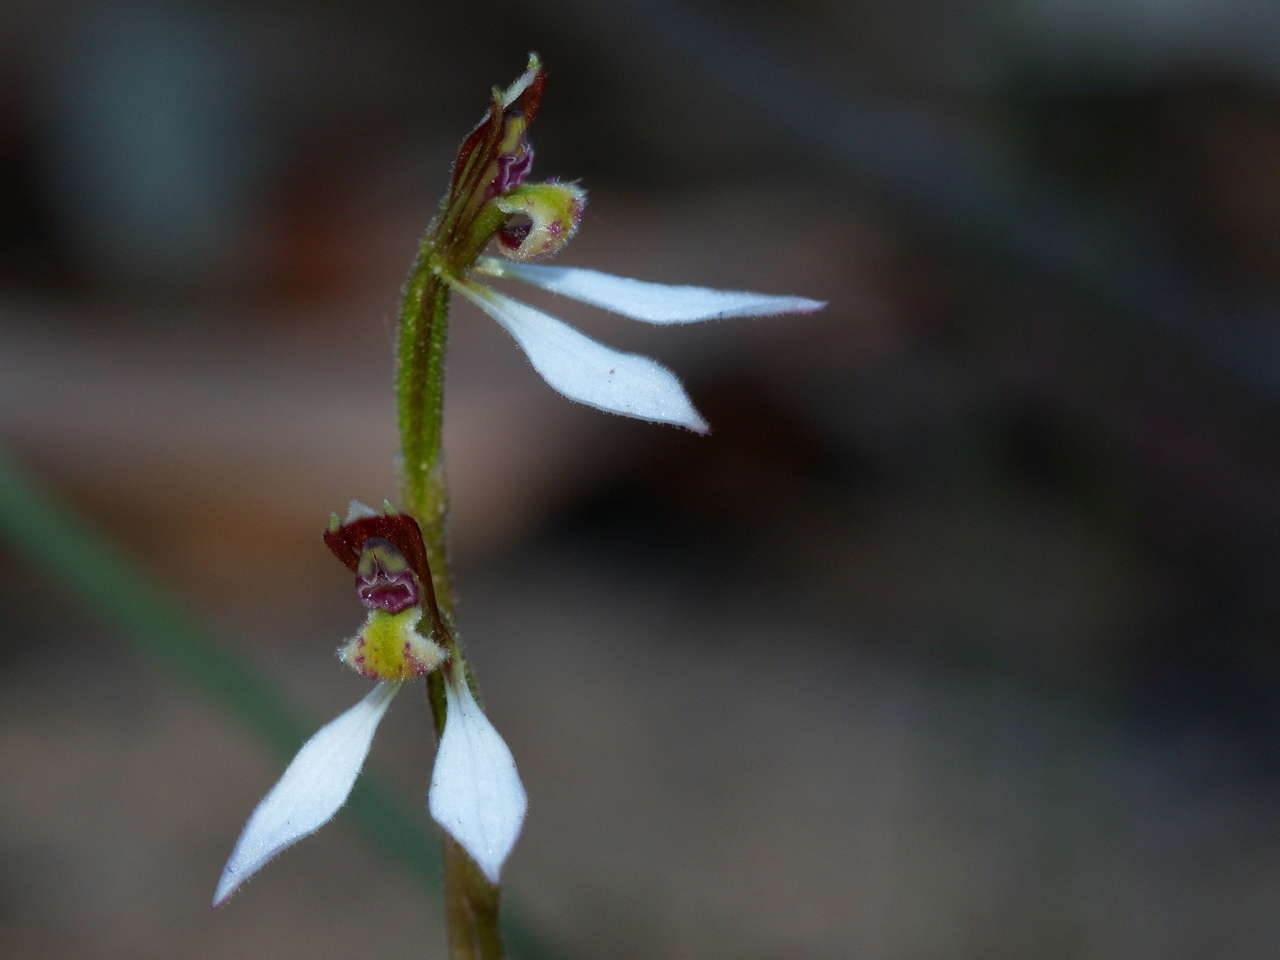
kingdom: Plantae
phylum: Tracheophyta
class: Liliopsida
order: Asparagales
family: Orchidaceae
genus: Eriochilus
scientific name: Eriochilus cucullatus
